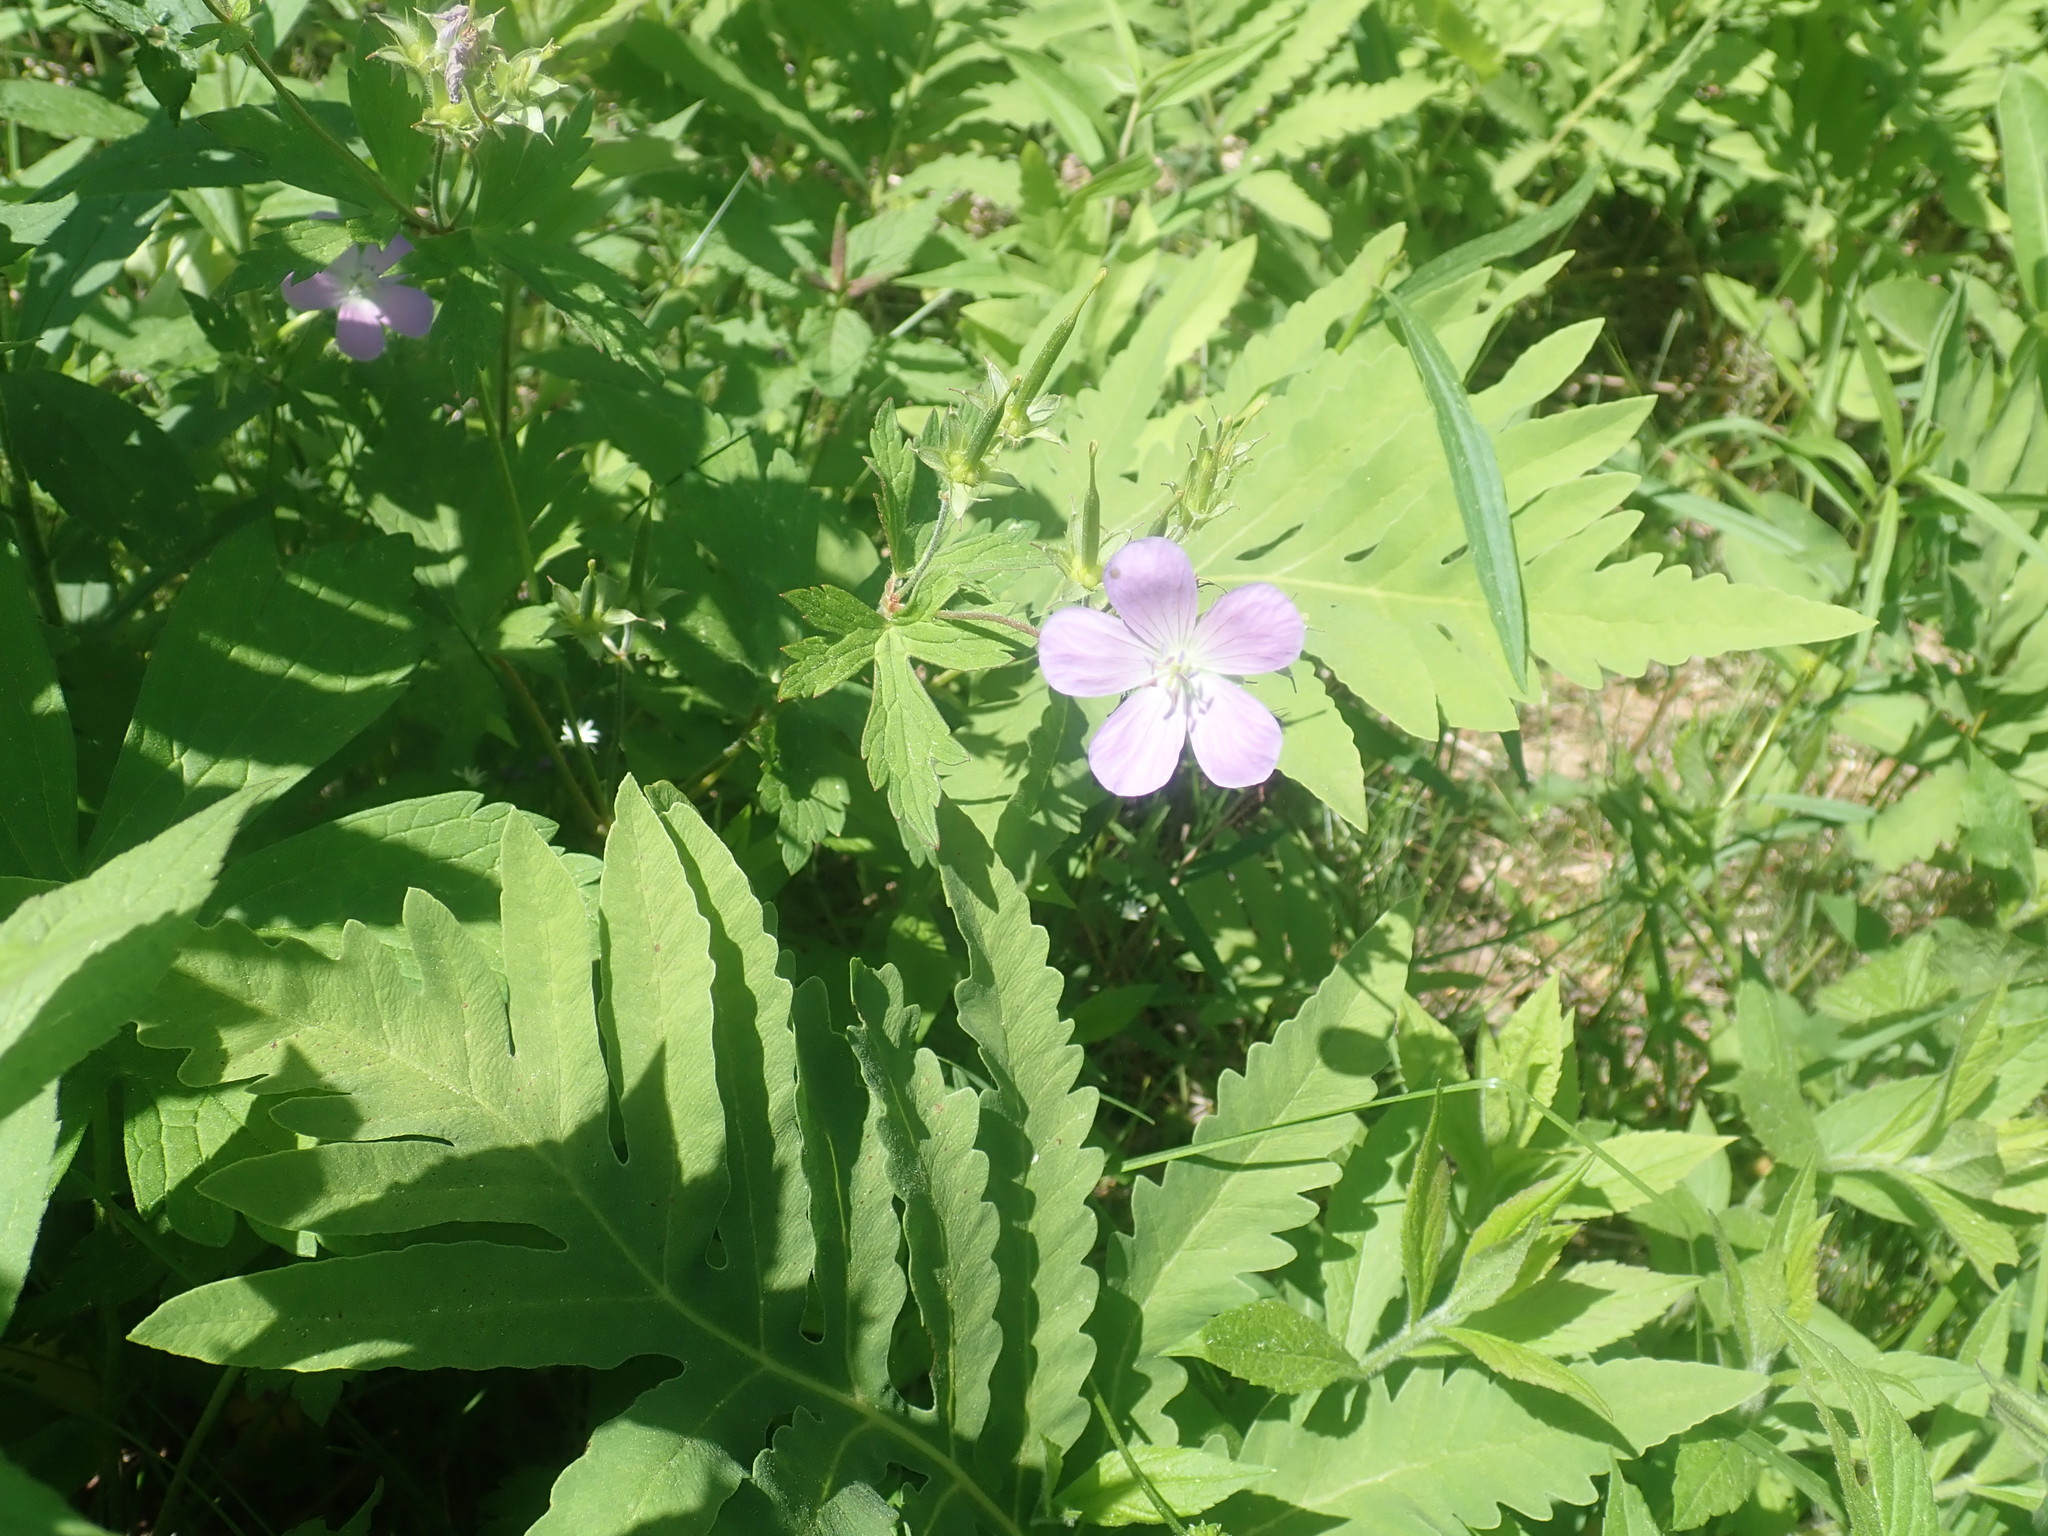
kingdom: Plantae
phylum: Tracheophyta
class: Magnoliopsida
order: Geraniales
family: Geraniaceae
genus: Geranium
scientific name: Geranium maculatum
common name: Spotted geranium
